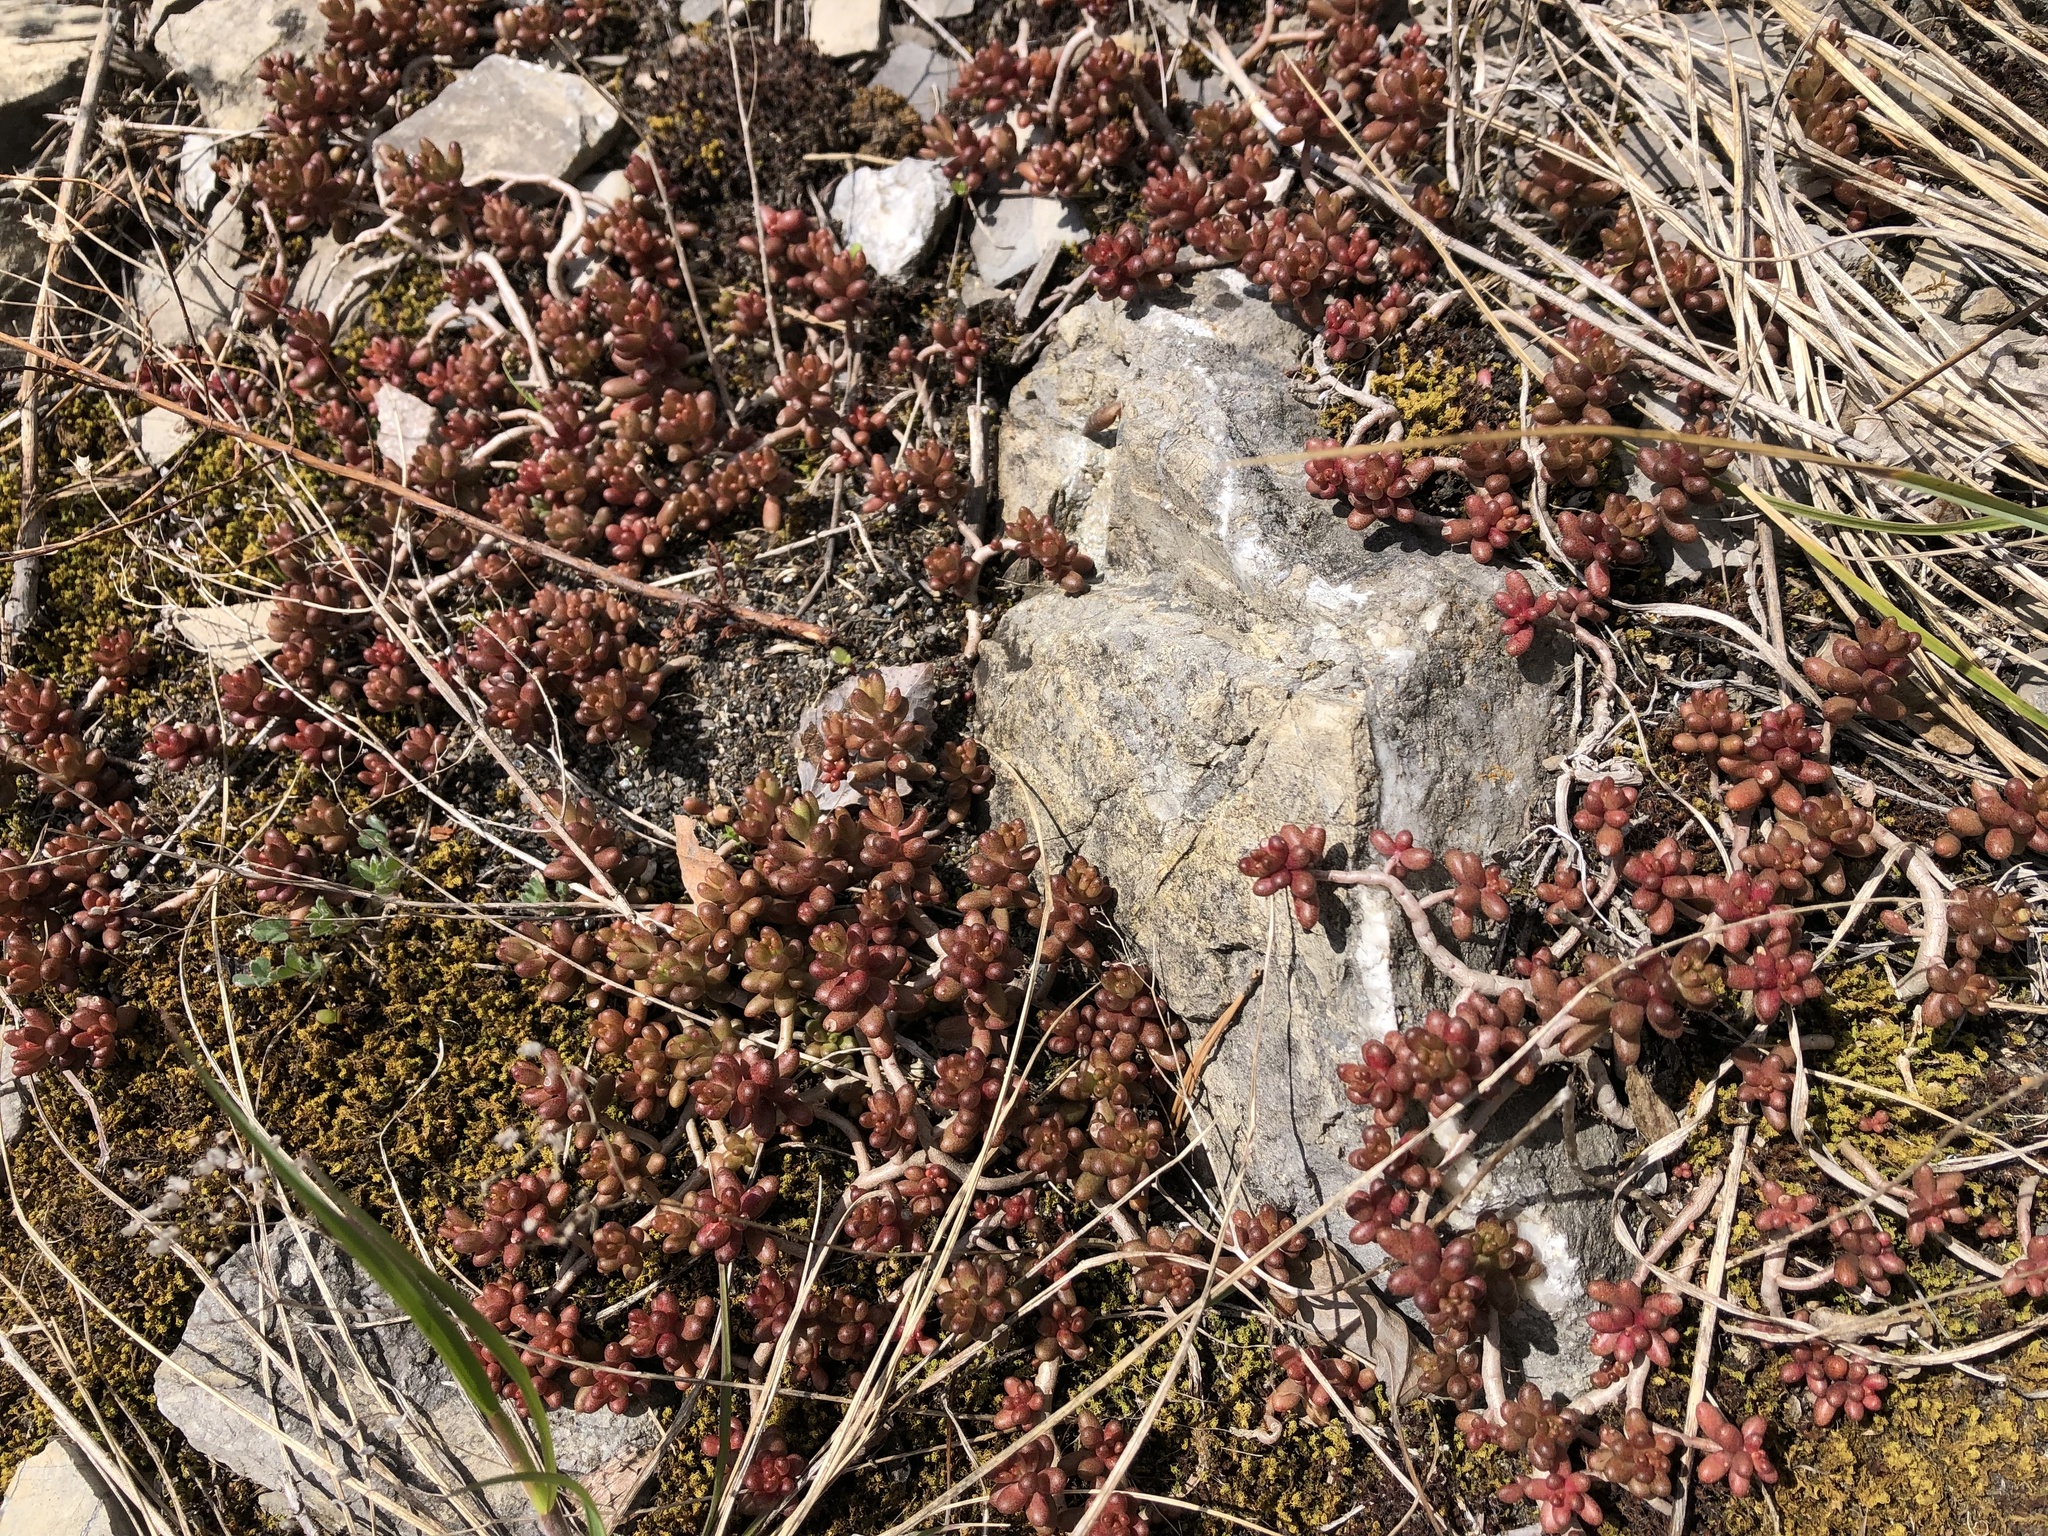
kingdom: Plantae
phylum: Tracheophyta
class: Magnoliopsida
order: Saxifragales
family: Crassulaceae
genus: Sedum
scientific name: Sedum album
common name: White stonecrop
